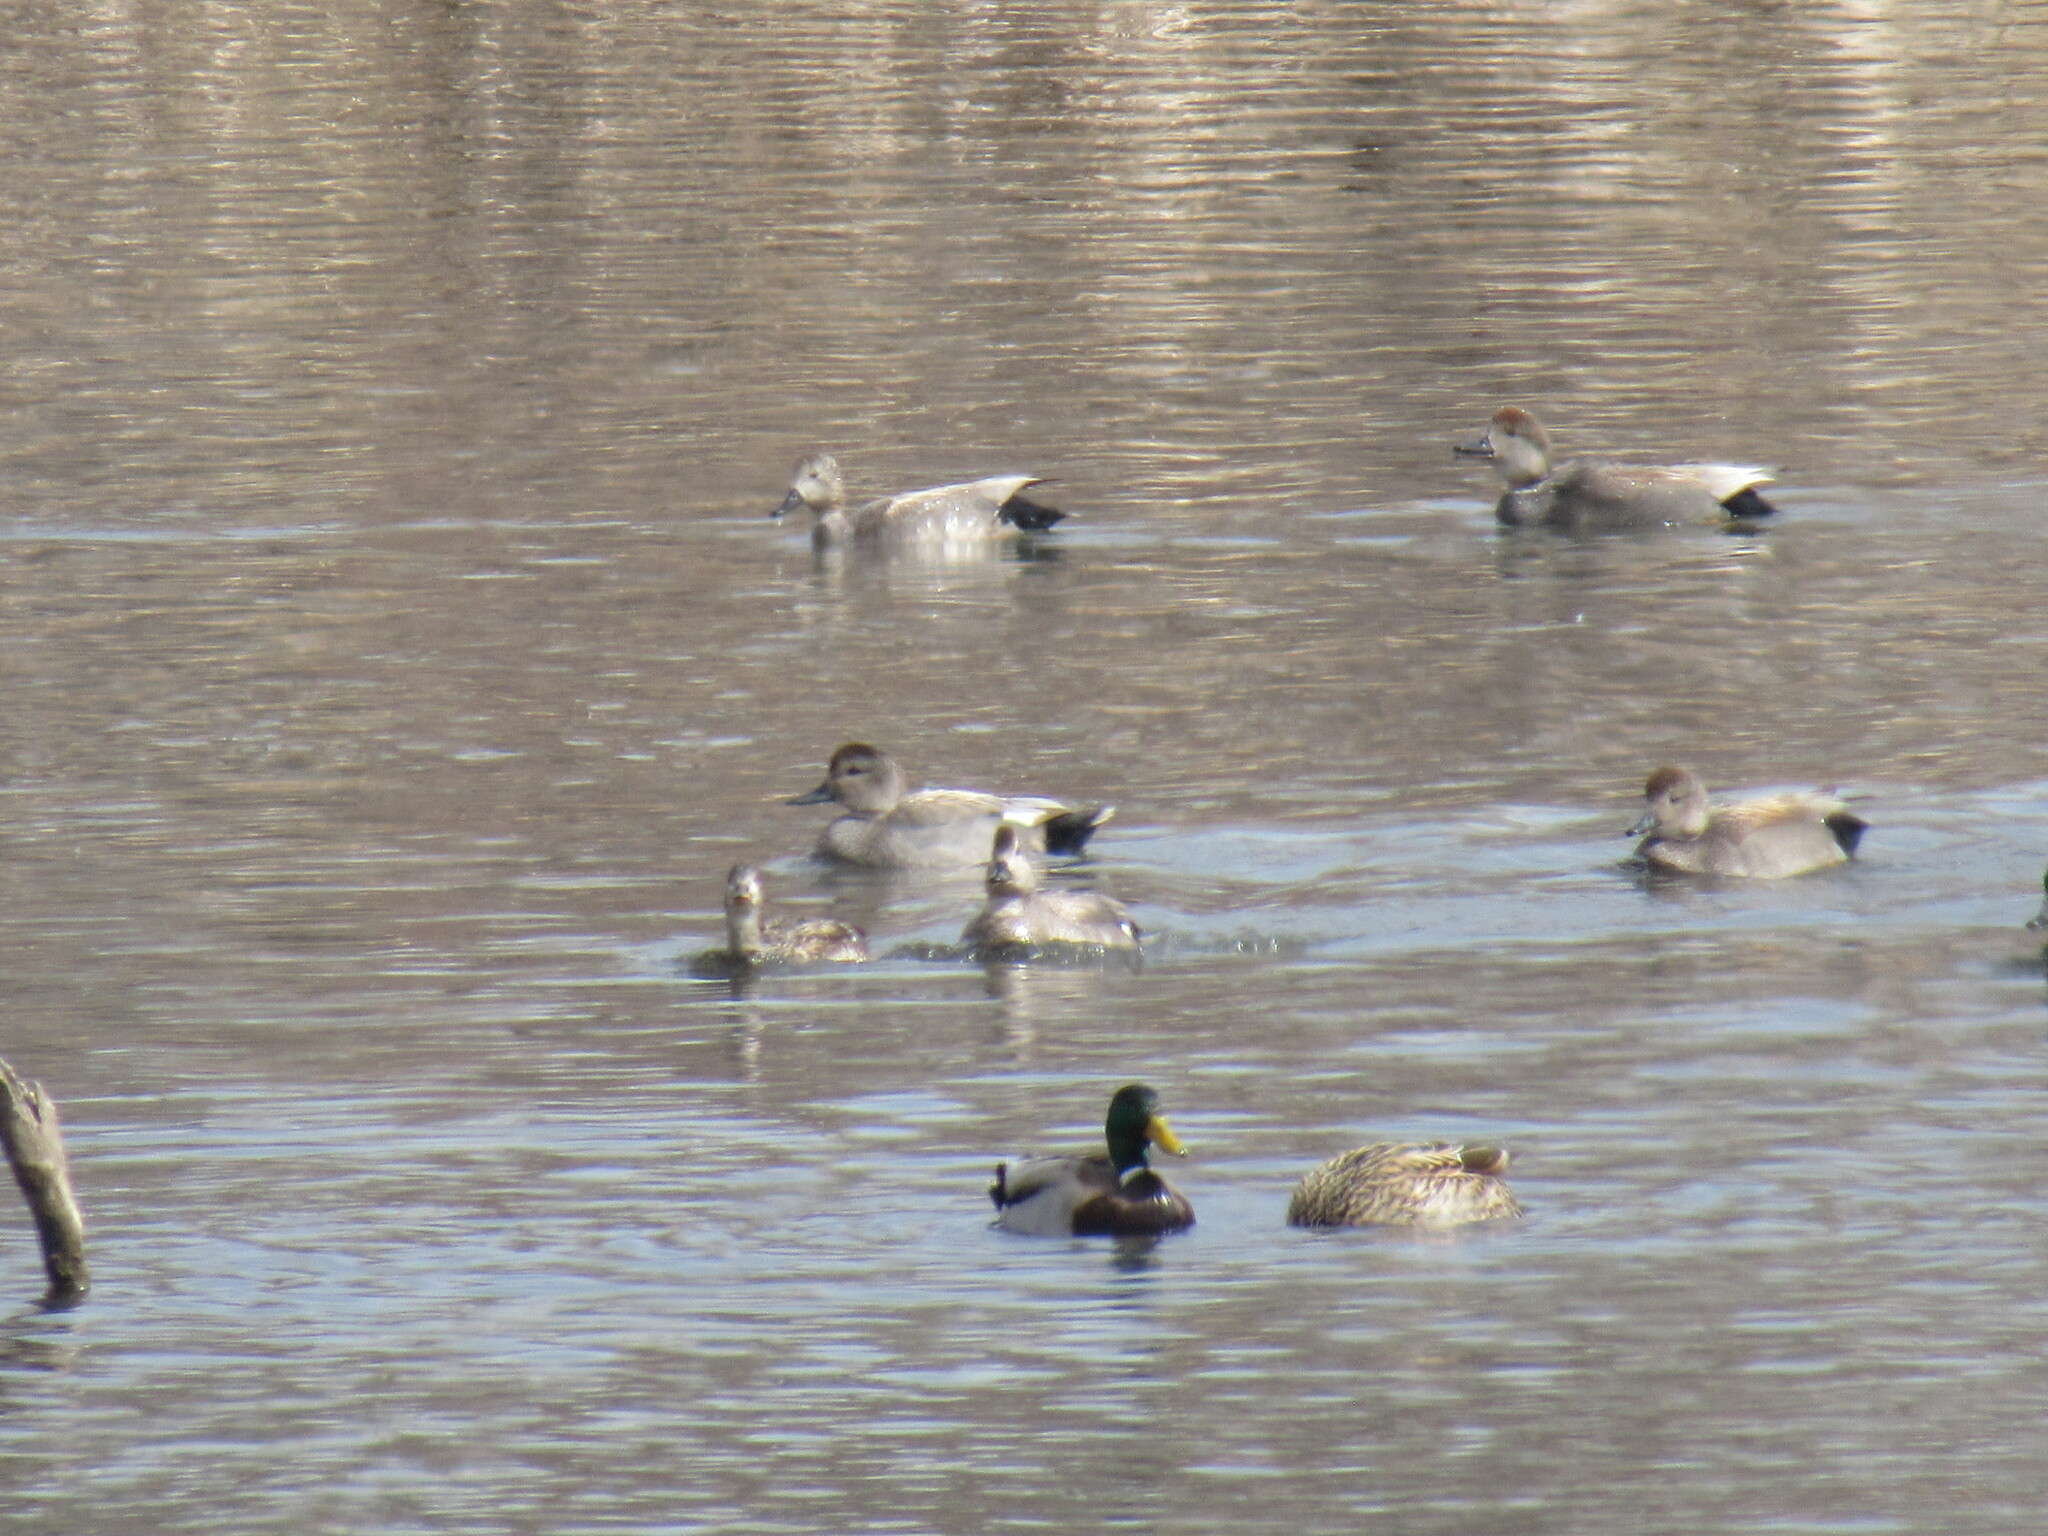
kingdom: Animalia
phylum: Chordata
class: Aves
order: Anseriformes
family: Anatidae
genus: Mareca
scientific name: Mareca strepera
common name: Gadwall
